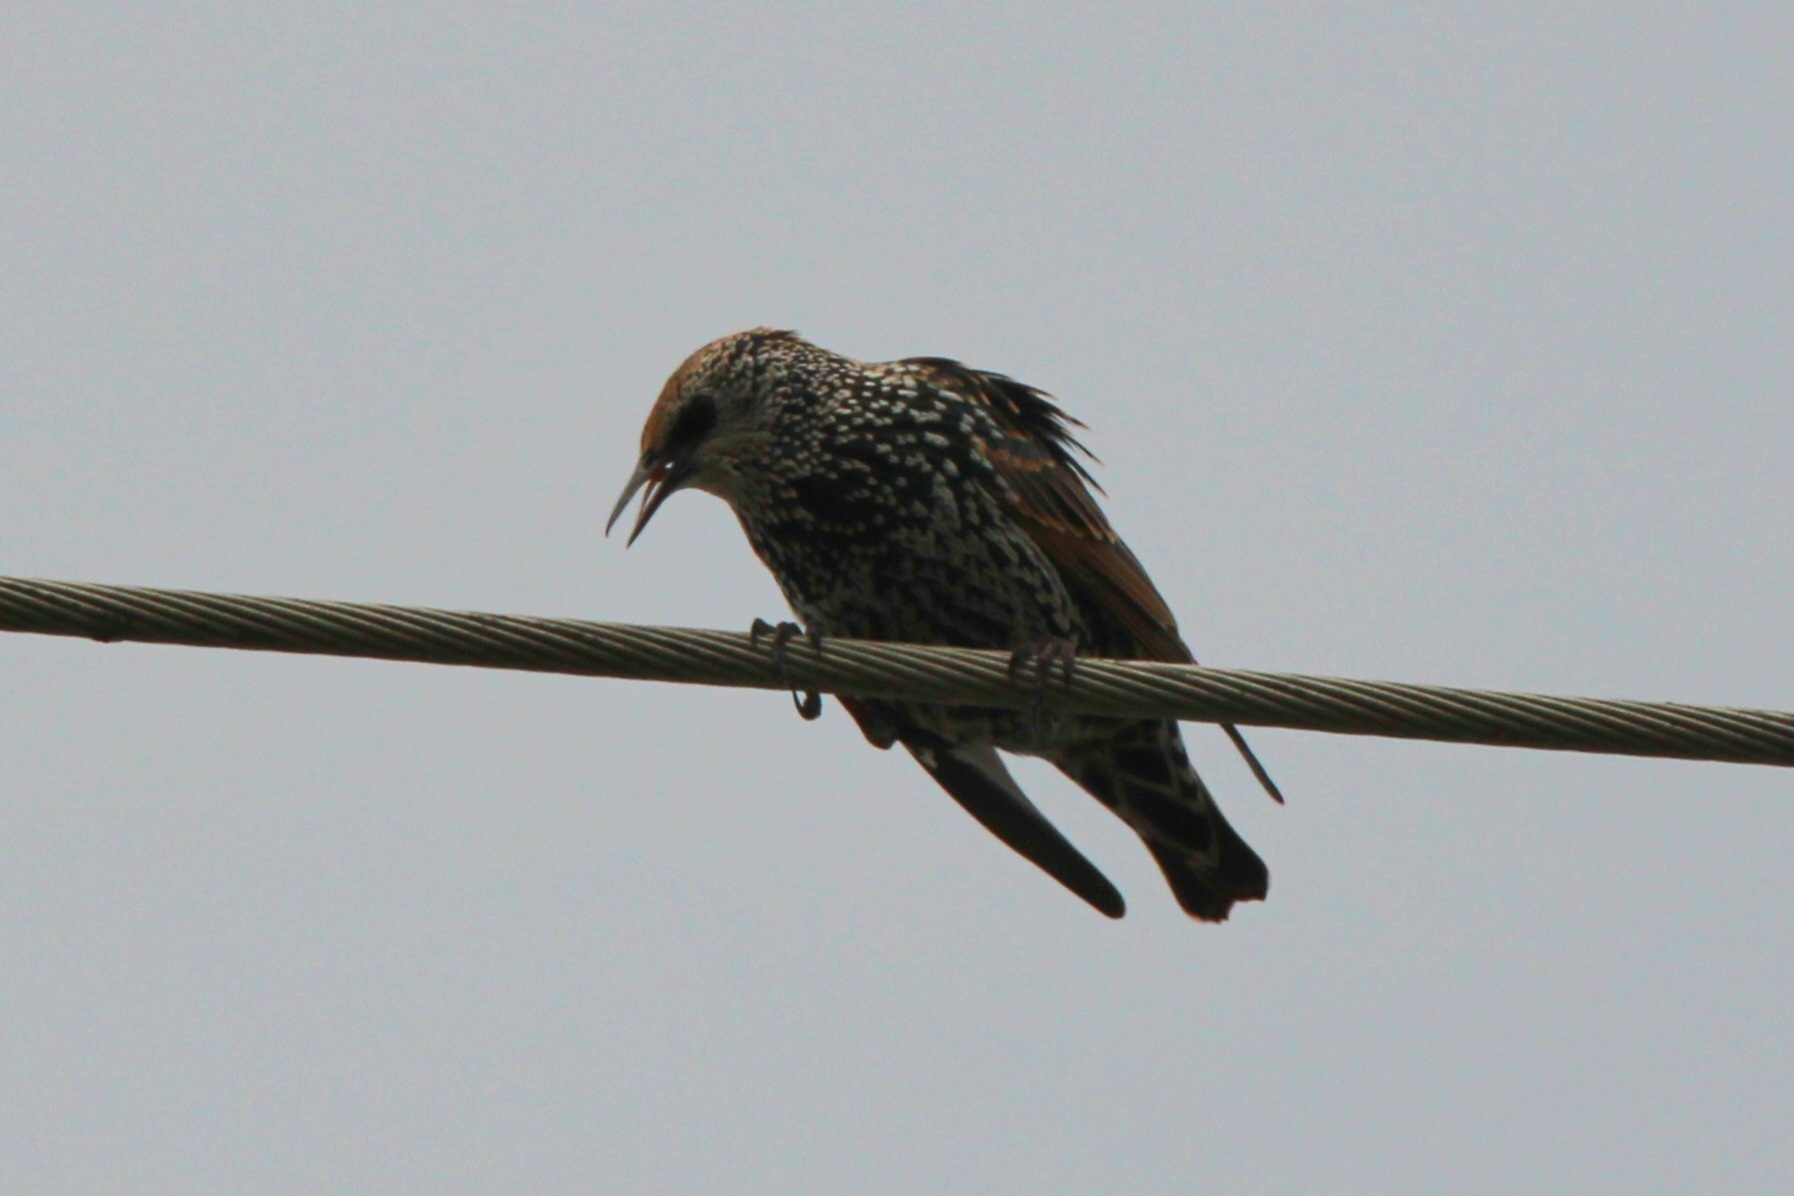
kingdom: Animalia
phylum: Chordata
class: Aves
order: Passeriformes
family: Sturnidae
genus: Sturnus
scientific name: Sturnus vulgaris
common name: Common starling
